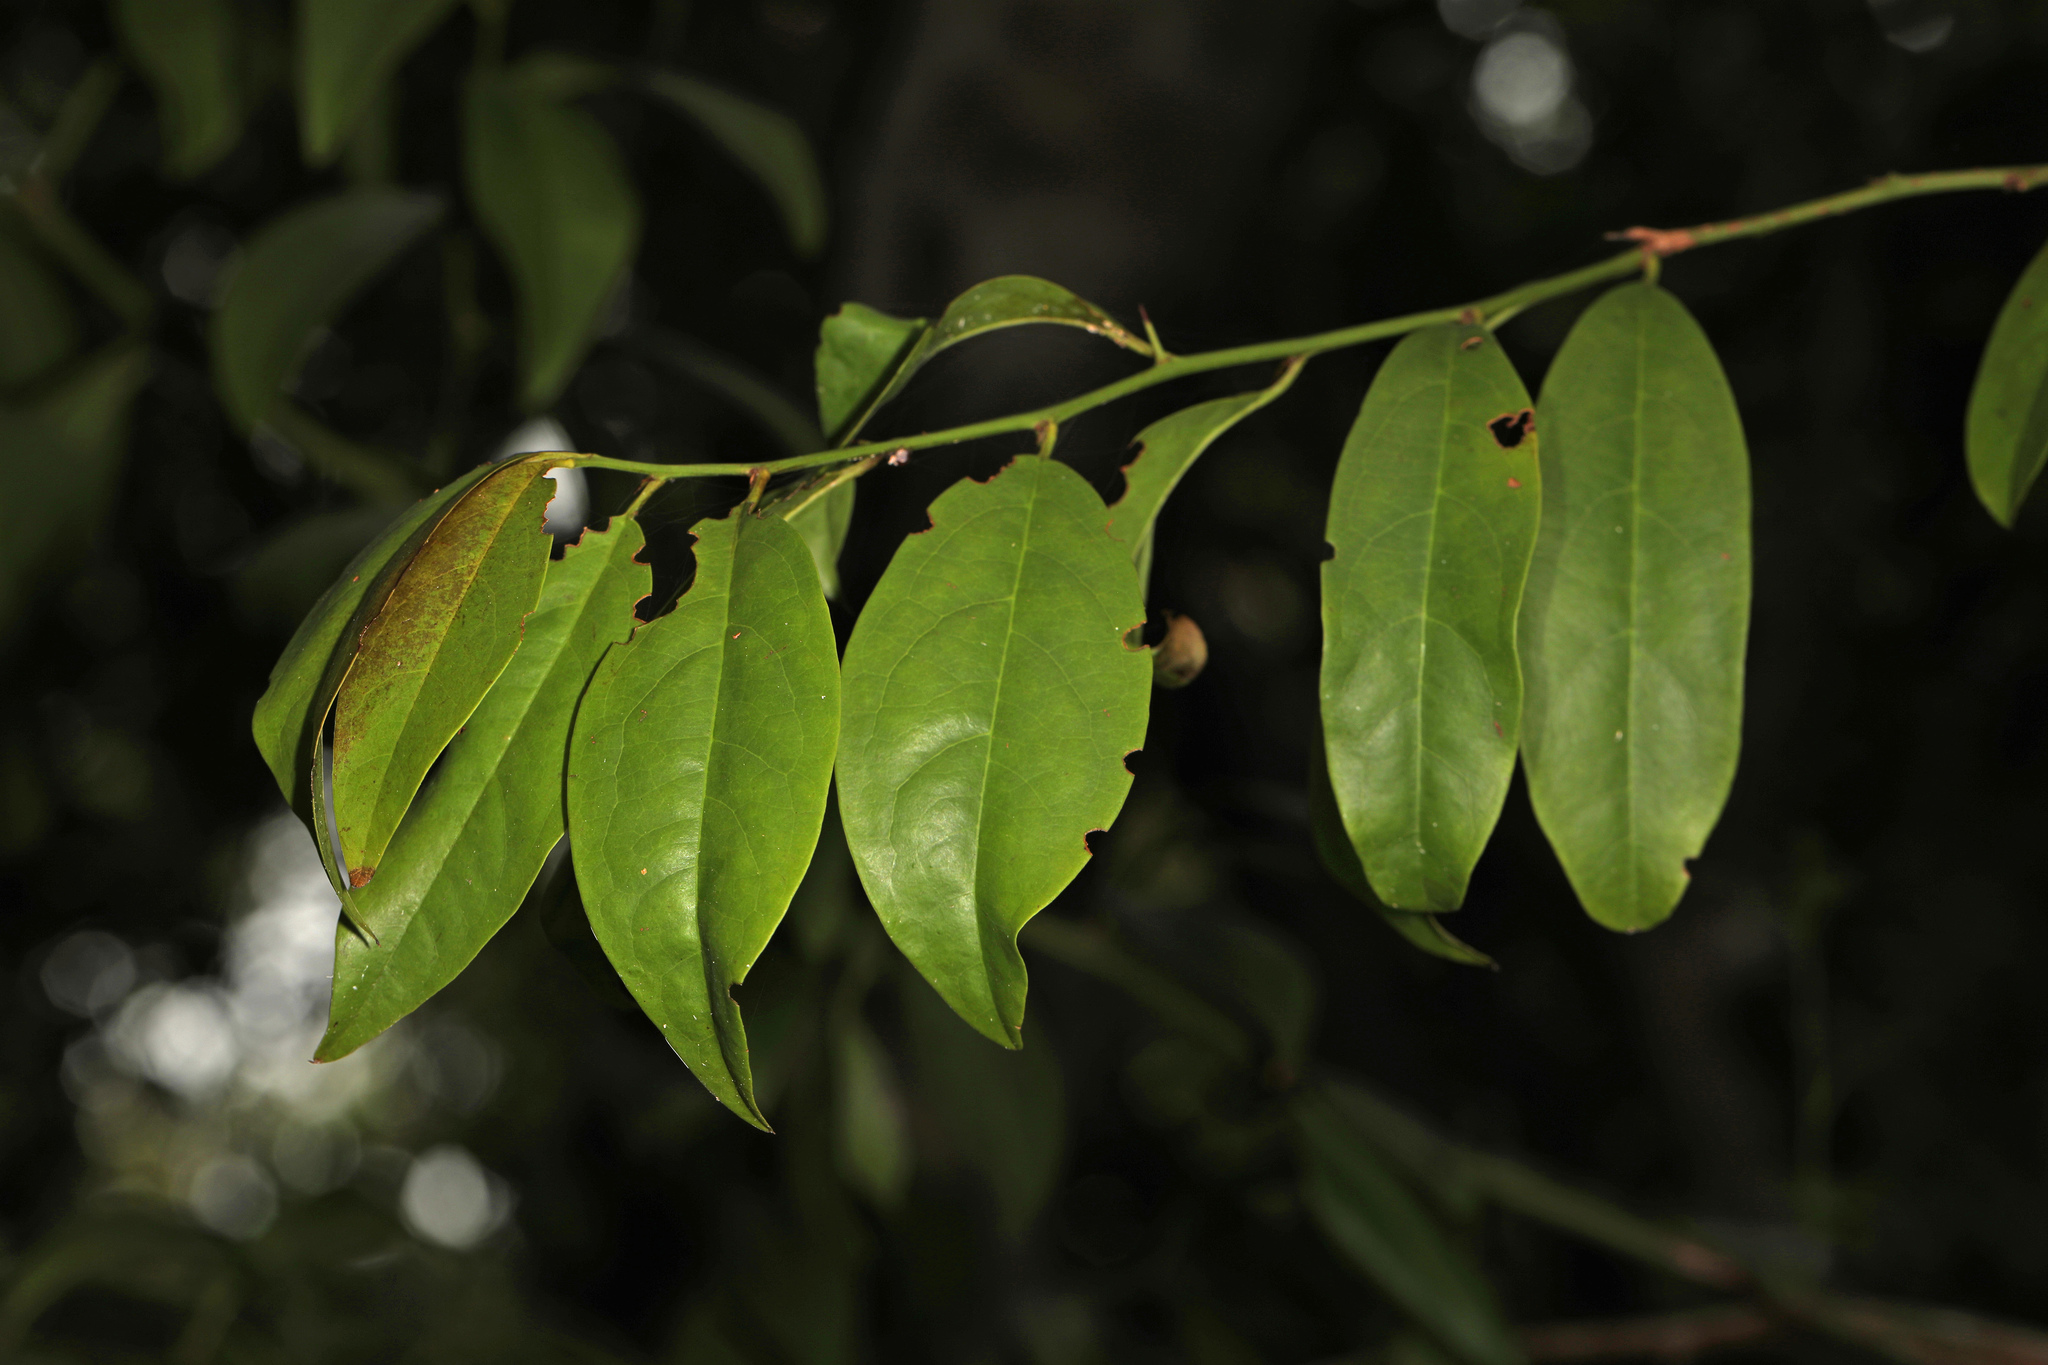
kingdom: Plantae
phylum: Tracheophyta
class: Magnoliopsida
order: Santalales
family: Ximeniaceae
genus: Ximenia
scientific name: Ximenia americana
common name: Tallowwood
